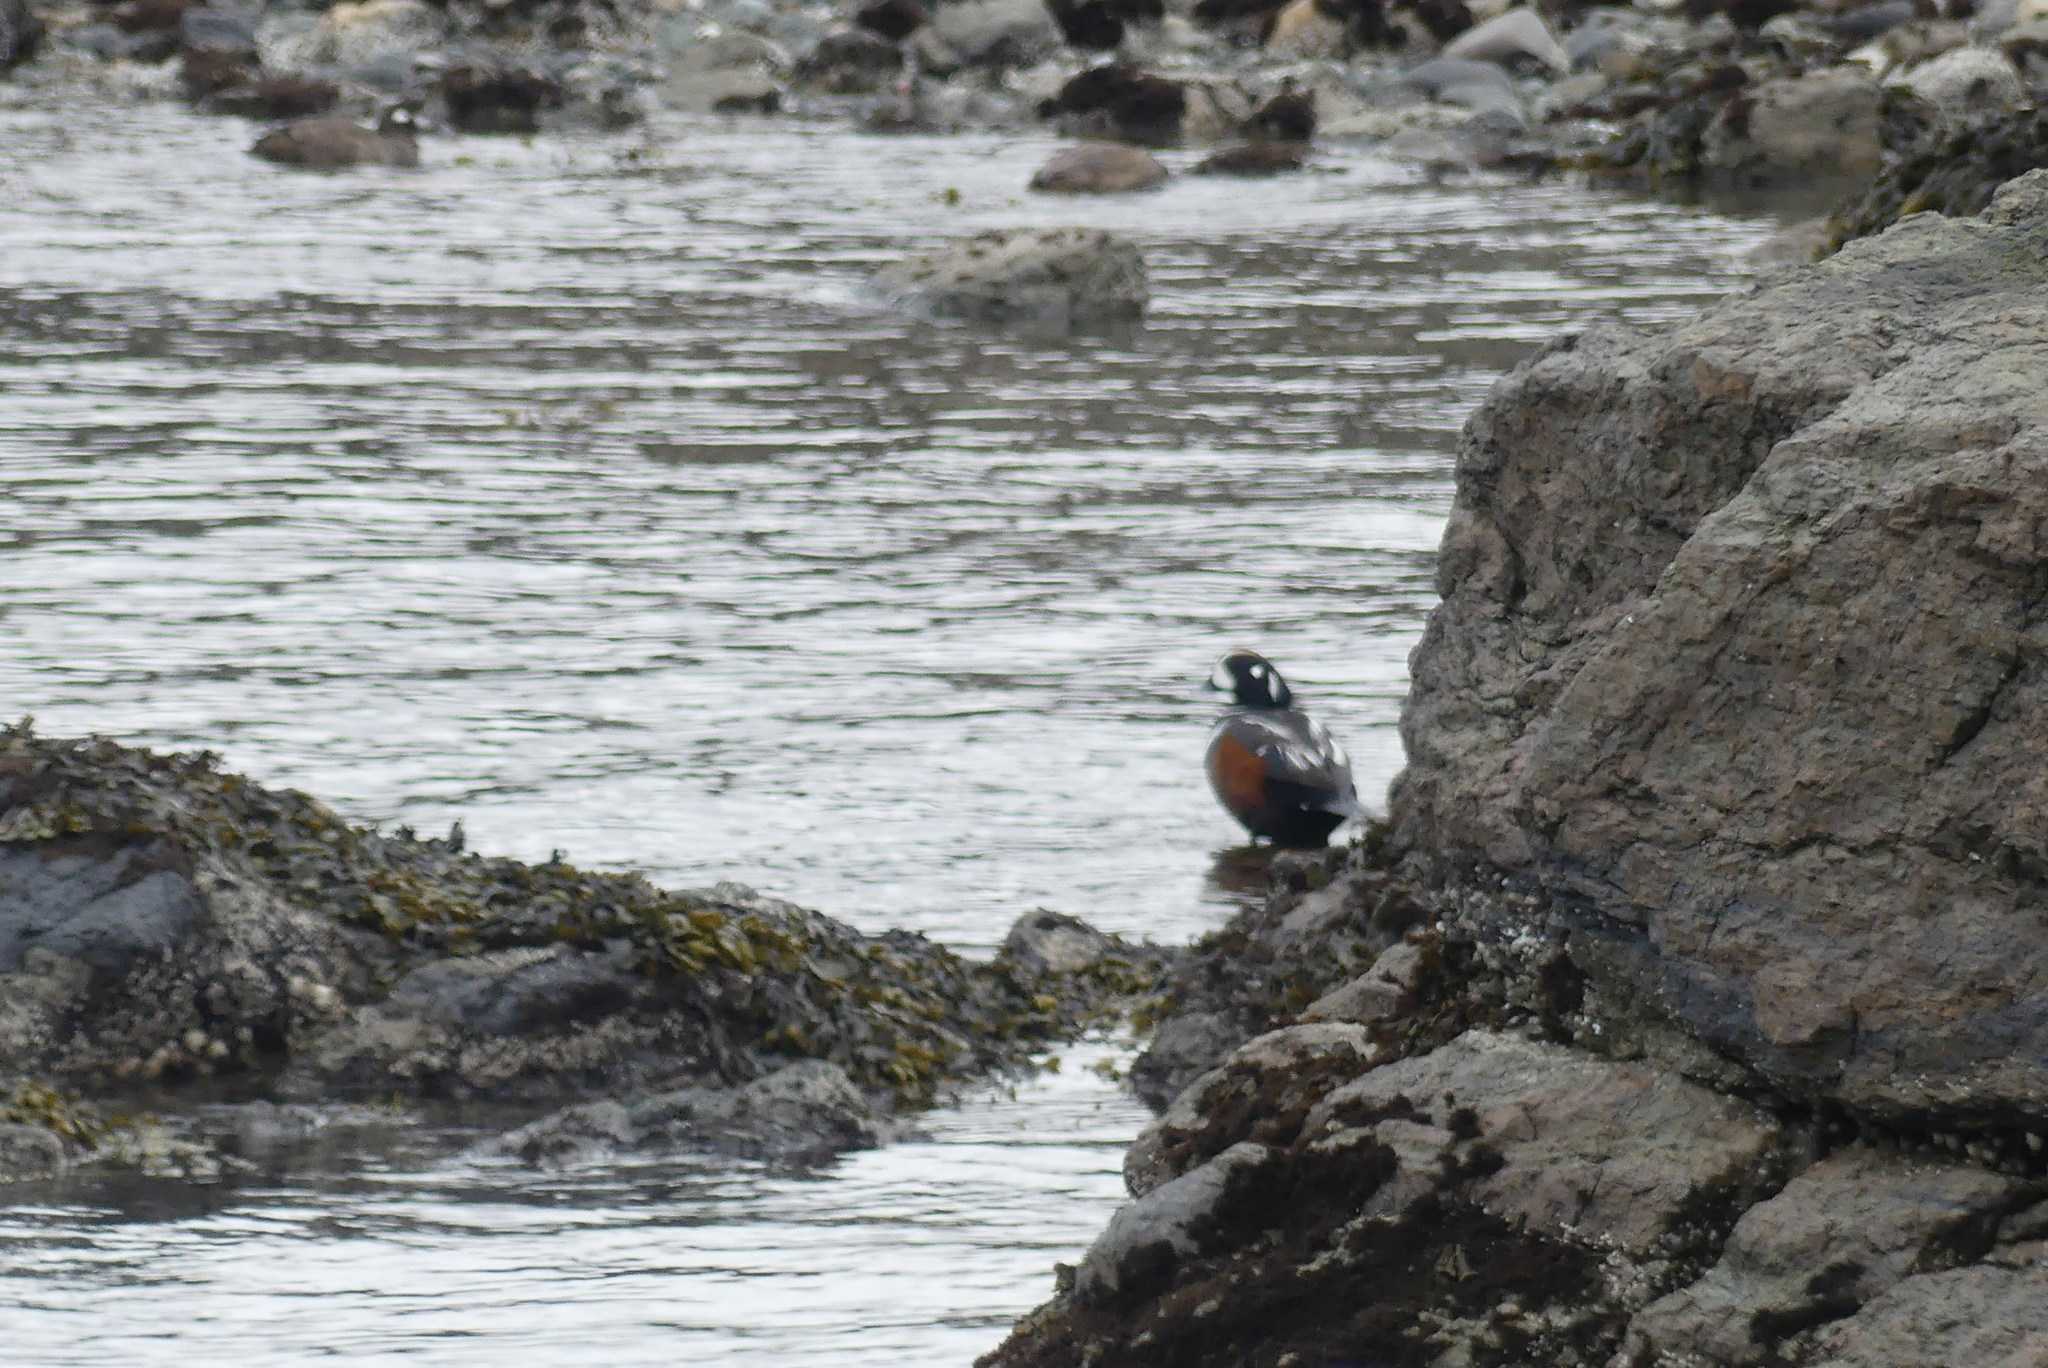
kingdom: Animalia
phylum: Chordata
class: Aves
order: Anseriformes
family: Anatidae
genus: Histrionicus
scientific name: Histrionicus histrionicus
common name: Harlequin duck
